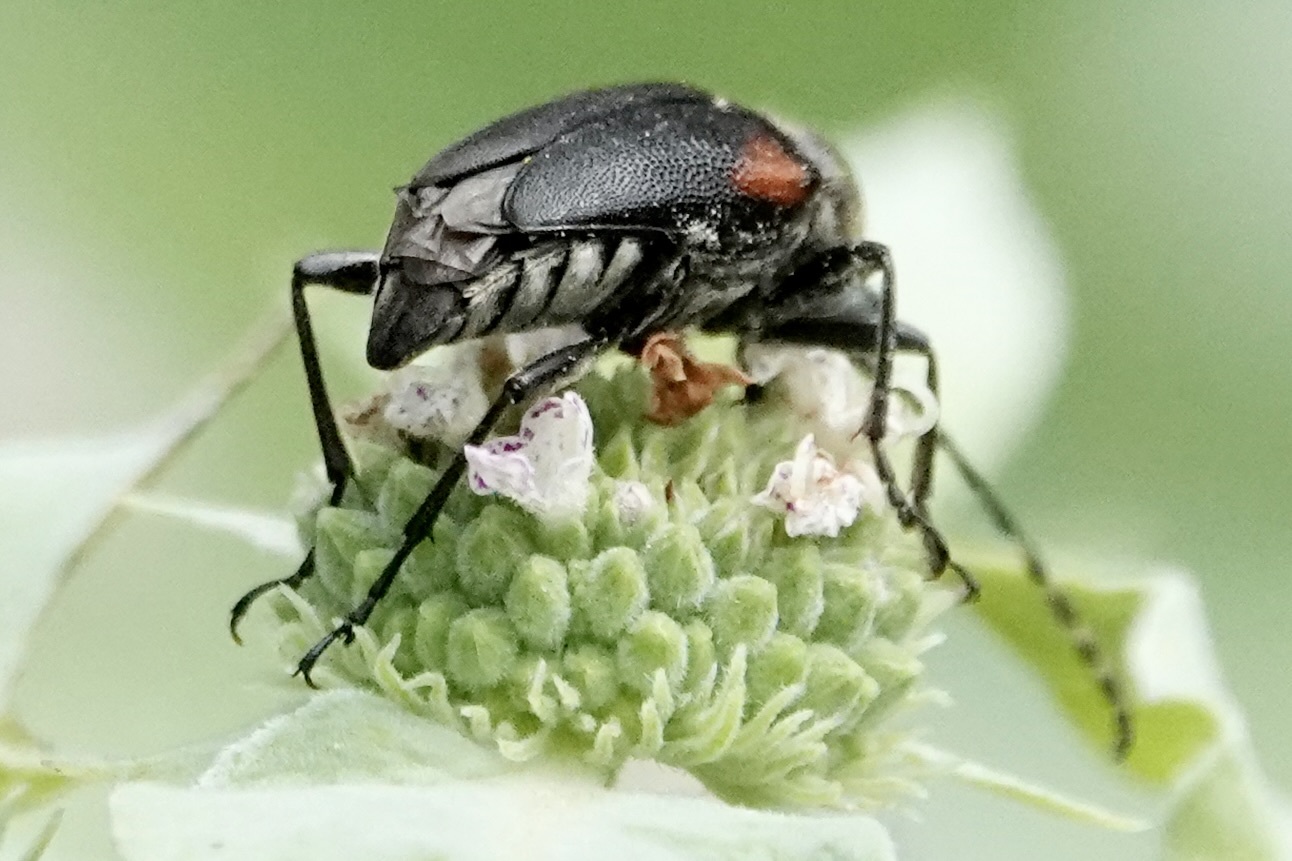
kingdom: Animalia
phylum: Arthropoda
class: Insecta
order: Coleoptera
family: Cerambycidae
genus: Brachyleptura
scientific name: Brachyleptura vagans
